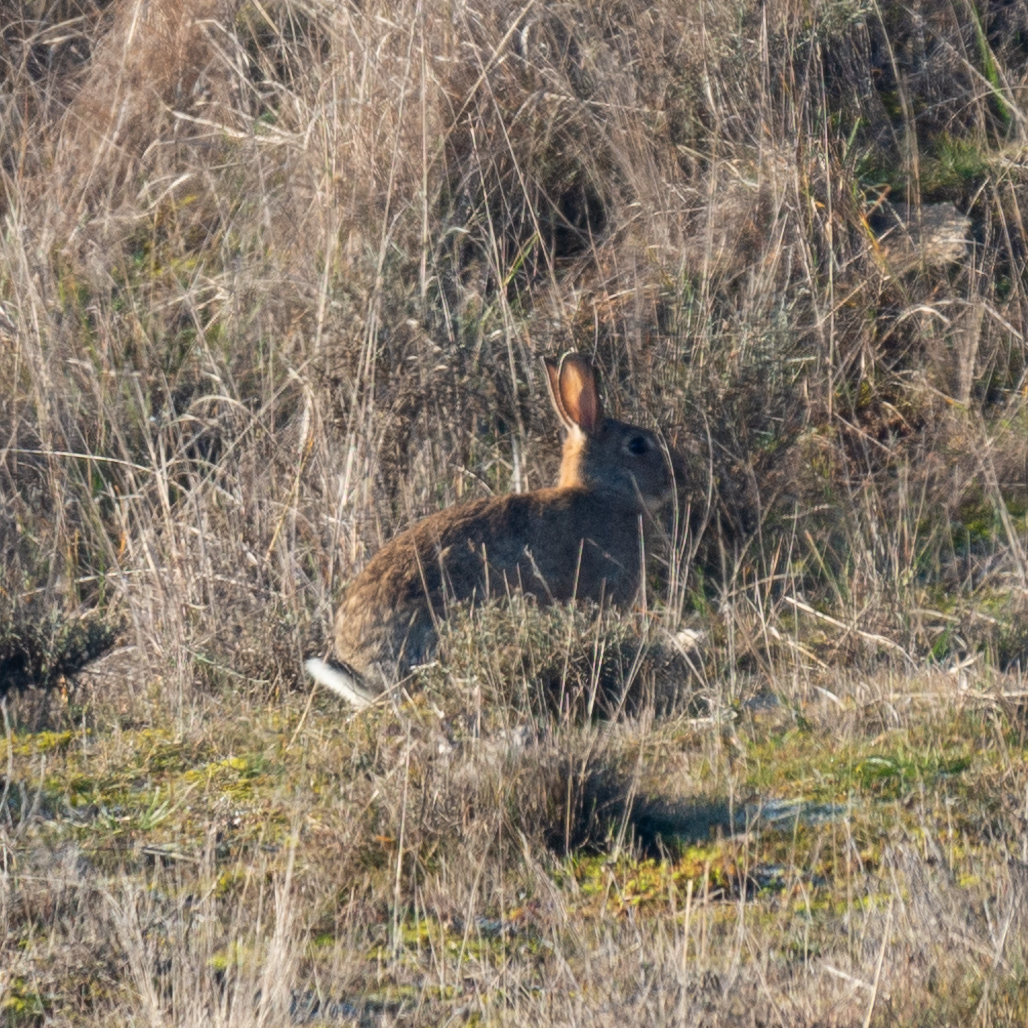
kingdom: Animalia
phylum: Chordata
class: Mammalia
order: Lagomorpha
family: Leporidae
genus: Oryctolagus
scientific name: Oryctolagus cuniculus
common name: European rabbit
